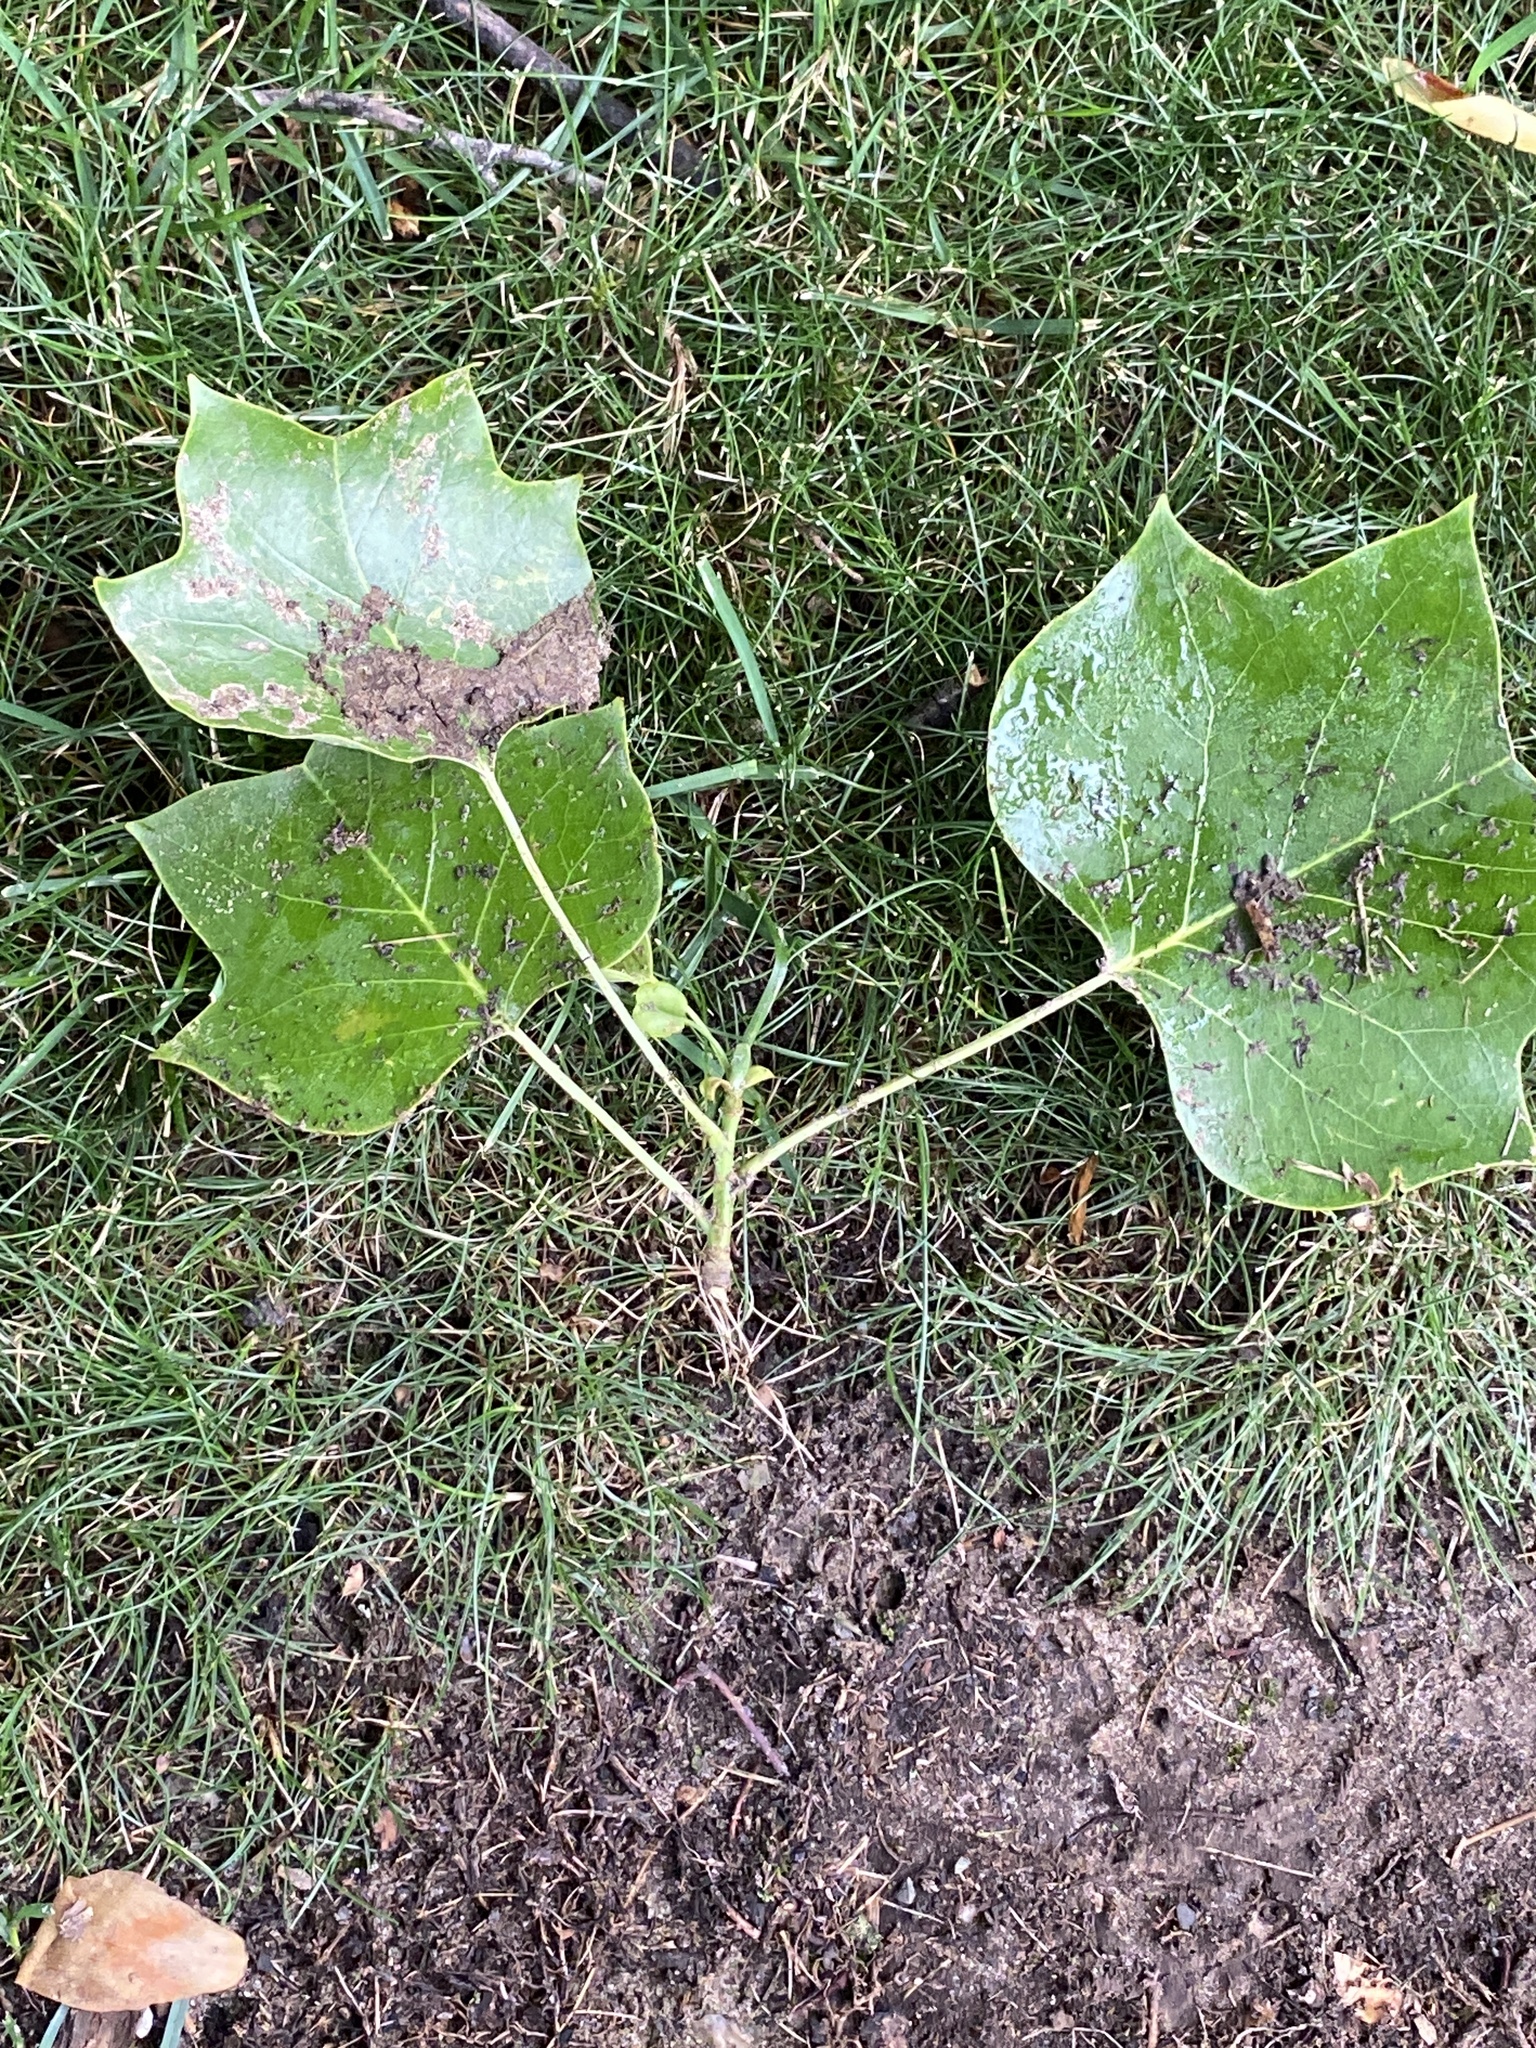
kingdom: Plantae
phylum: Tracheophyta
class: Magnoliopsida
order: Magnoliales
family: Magnoliaceae
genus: Liriodendron
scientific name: Liriodendron tulipifera
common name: Tulip tree
